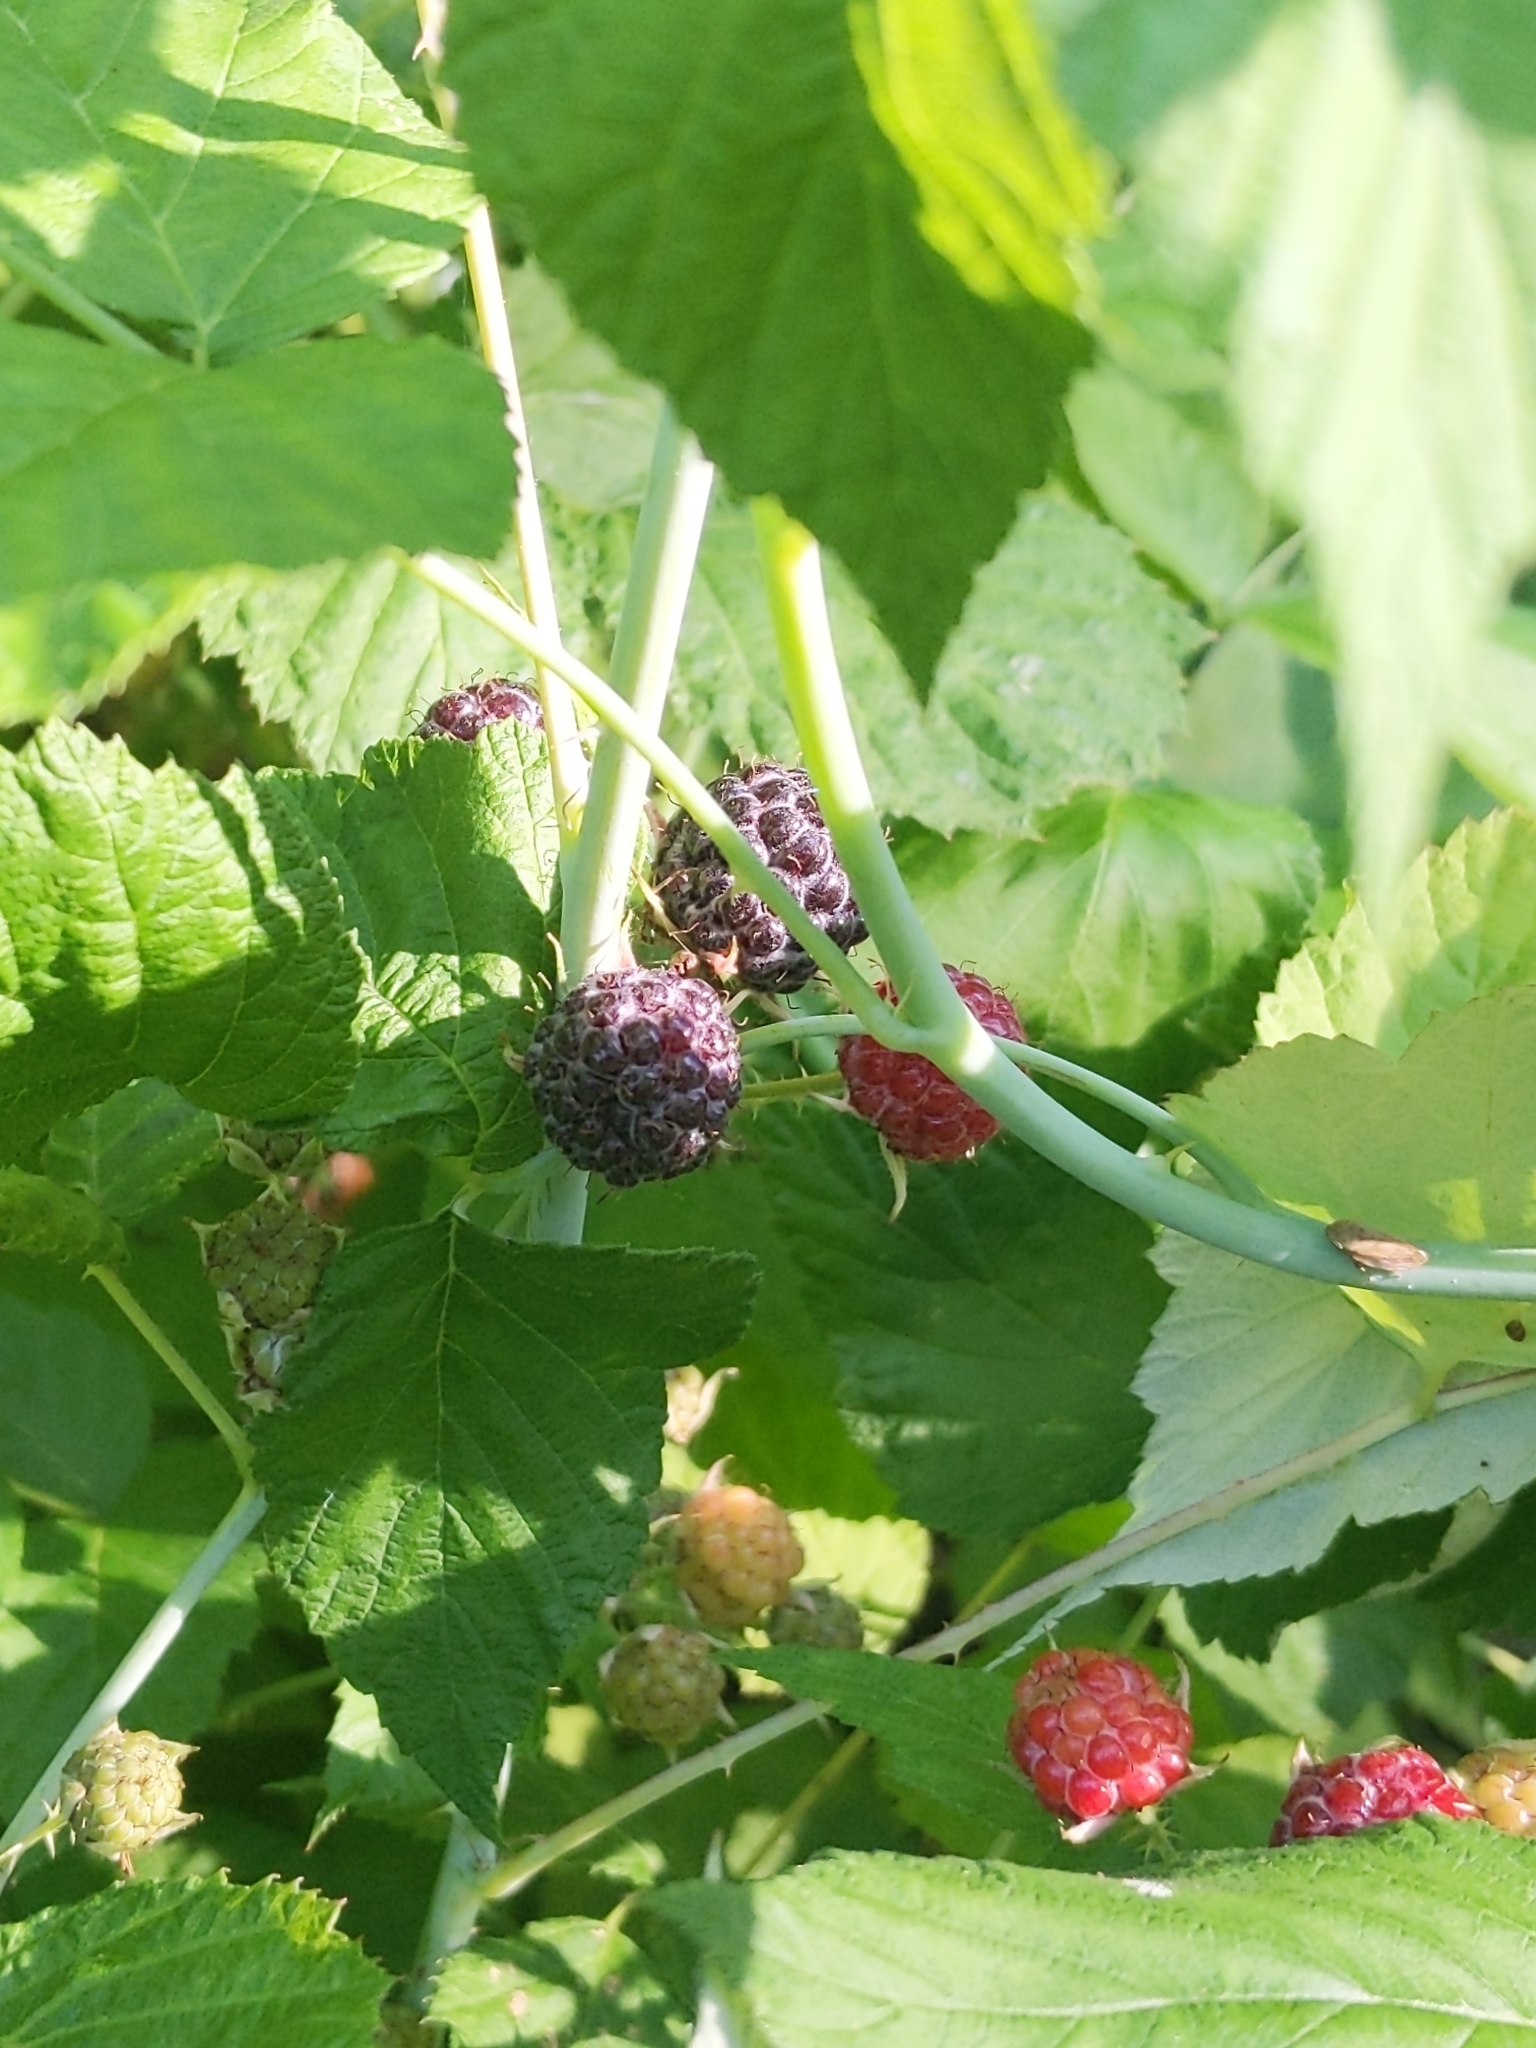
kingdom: Plantae
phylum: Tracheophyta
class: Magnoliopsida
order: Rosales
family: Rosaceae
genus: Rubus
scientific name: Rubus occidentalis
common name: Black raspberry
